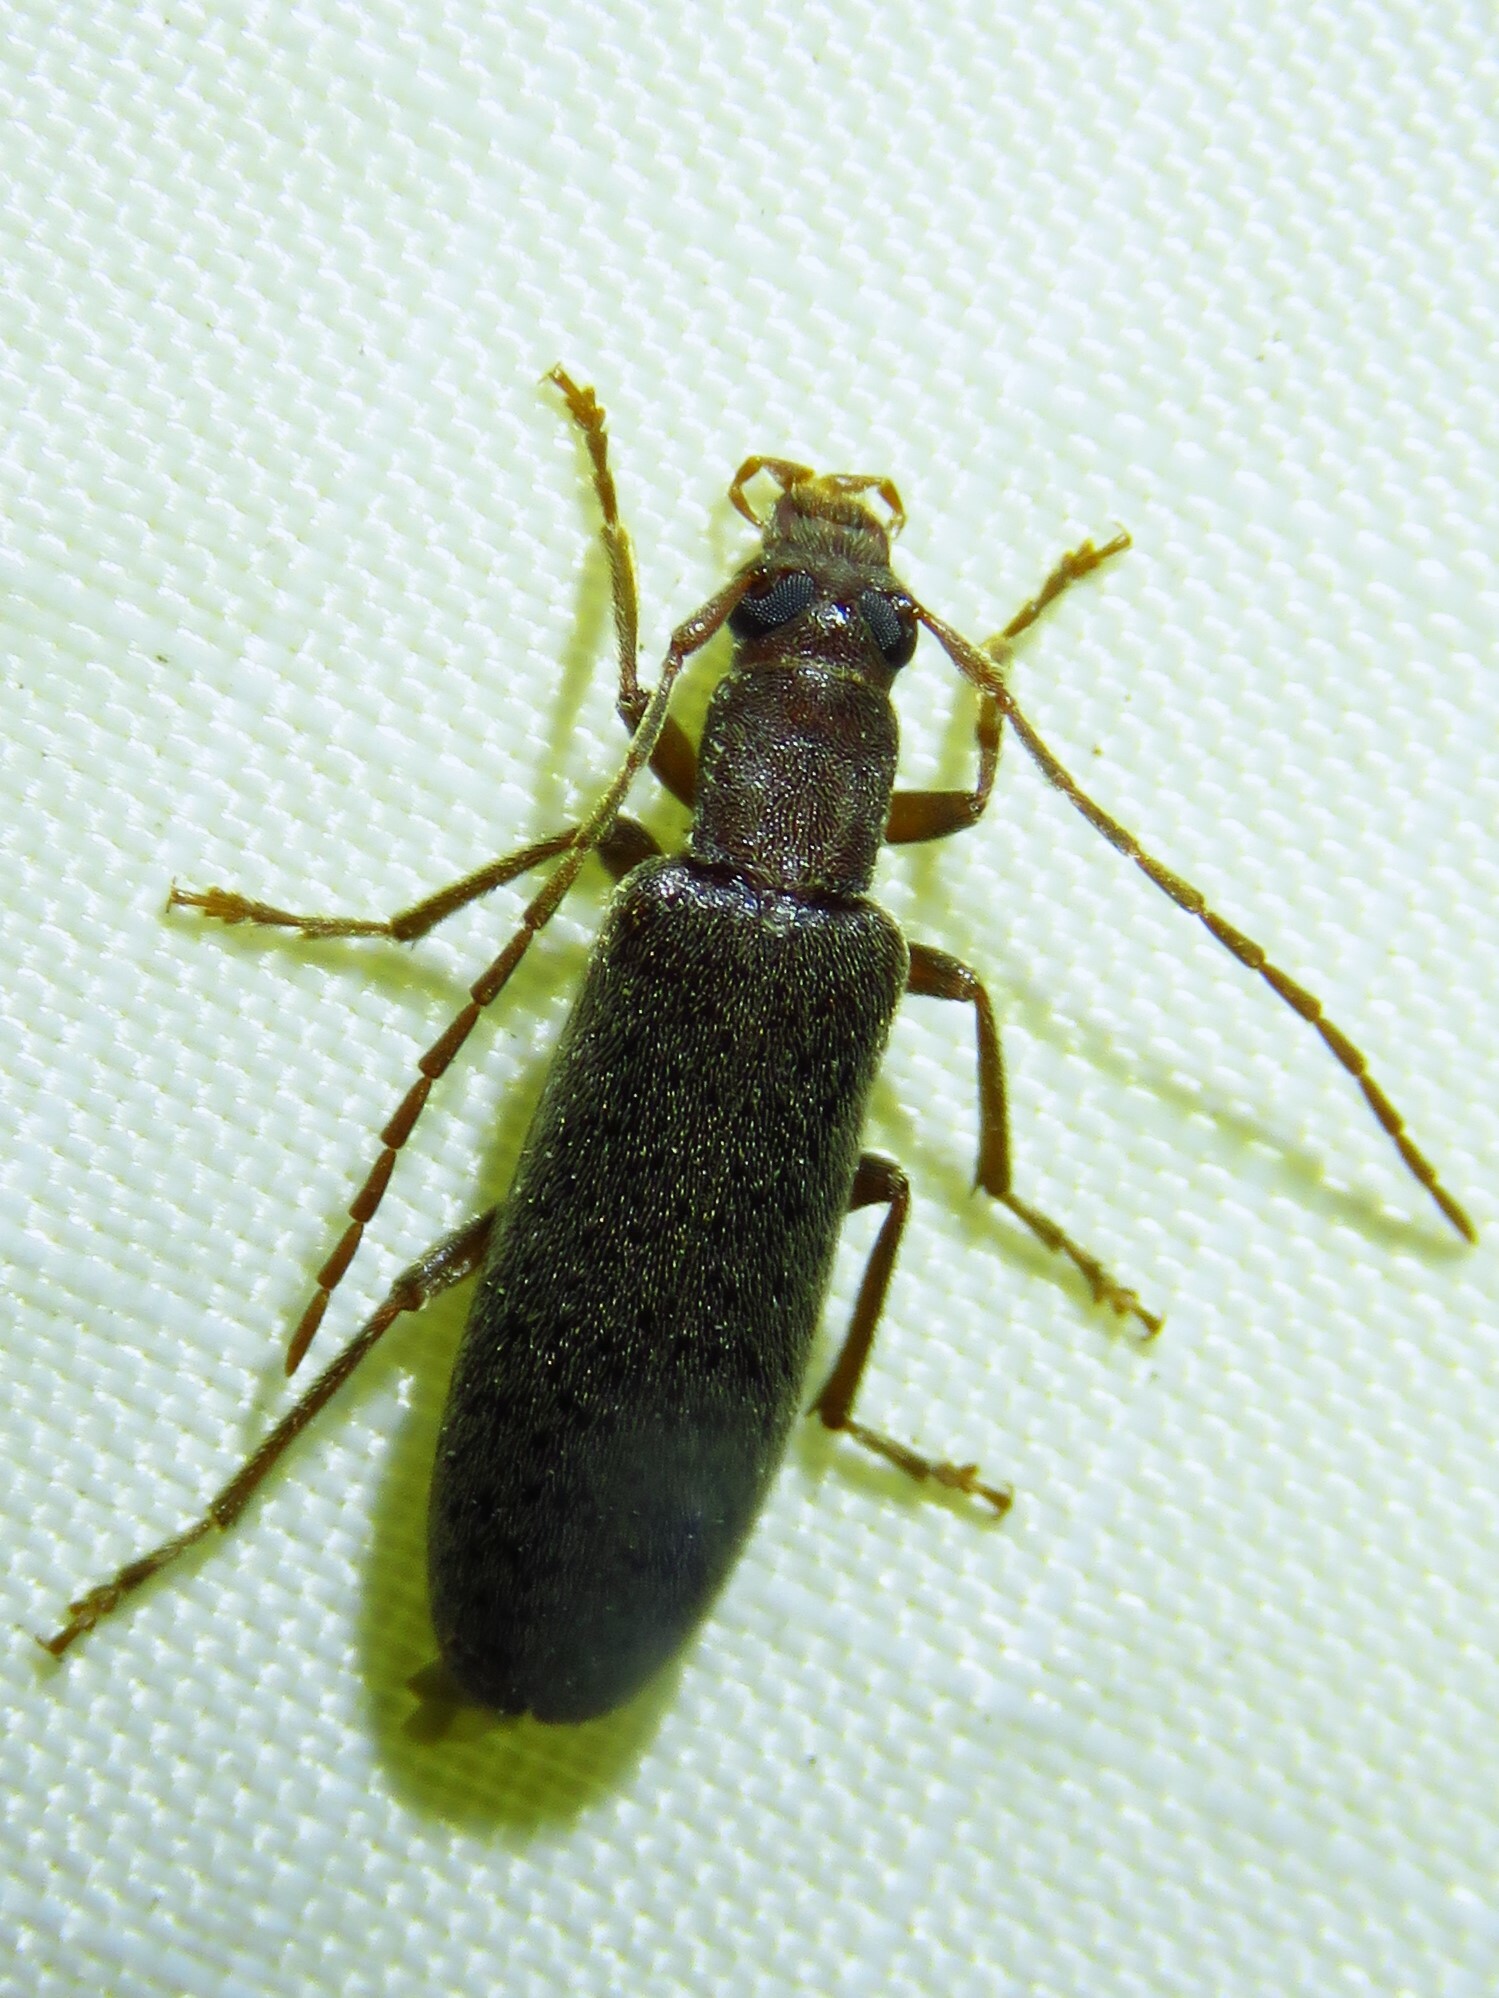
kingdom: Animalia
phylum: Arthropoda
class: Insecta
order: Coleoptera
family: Oedemeridae
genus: Sparedrus
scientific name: Sparedrus aspersus
